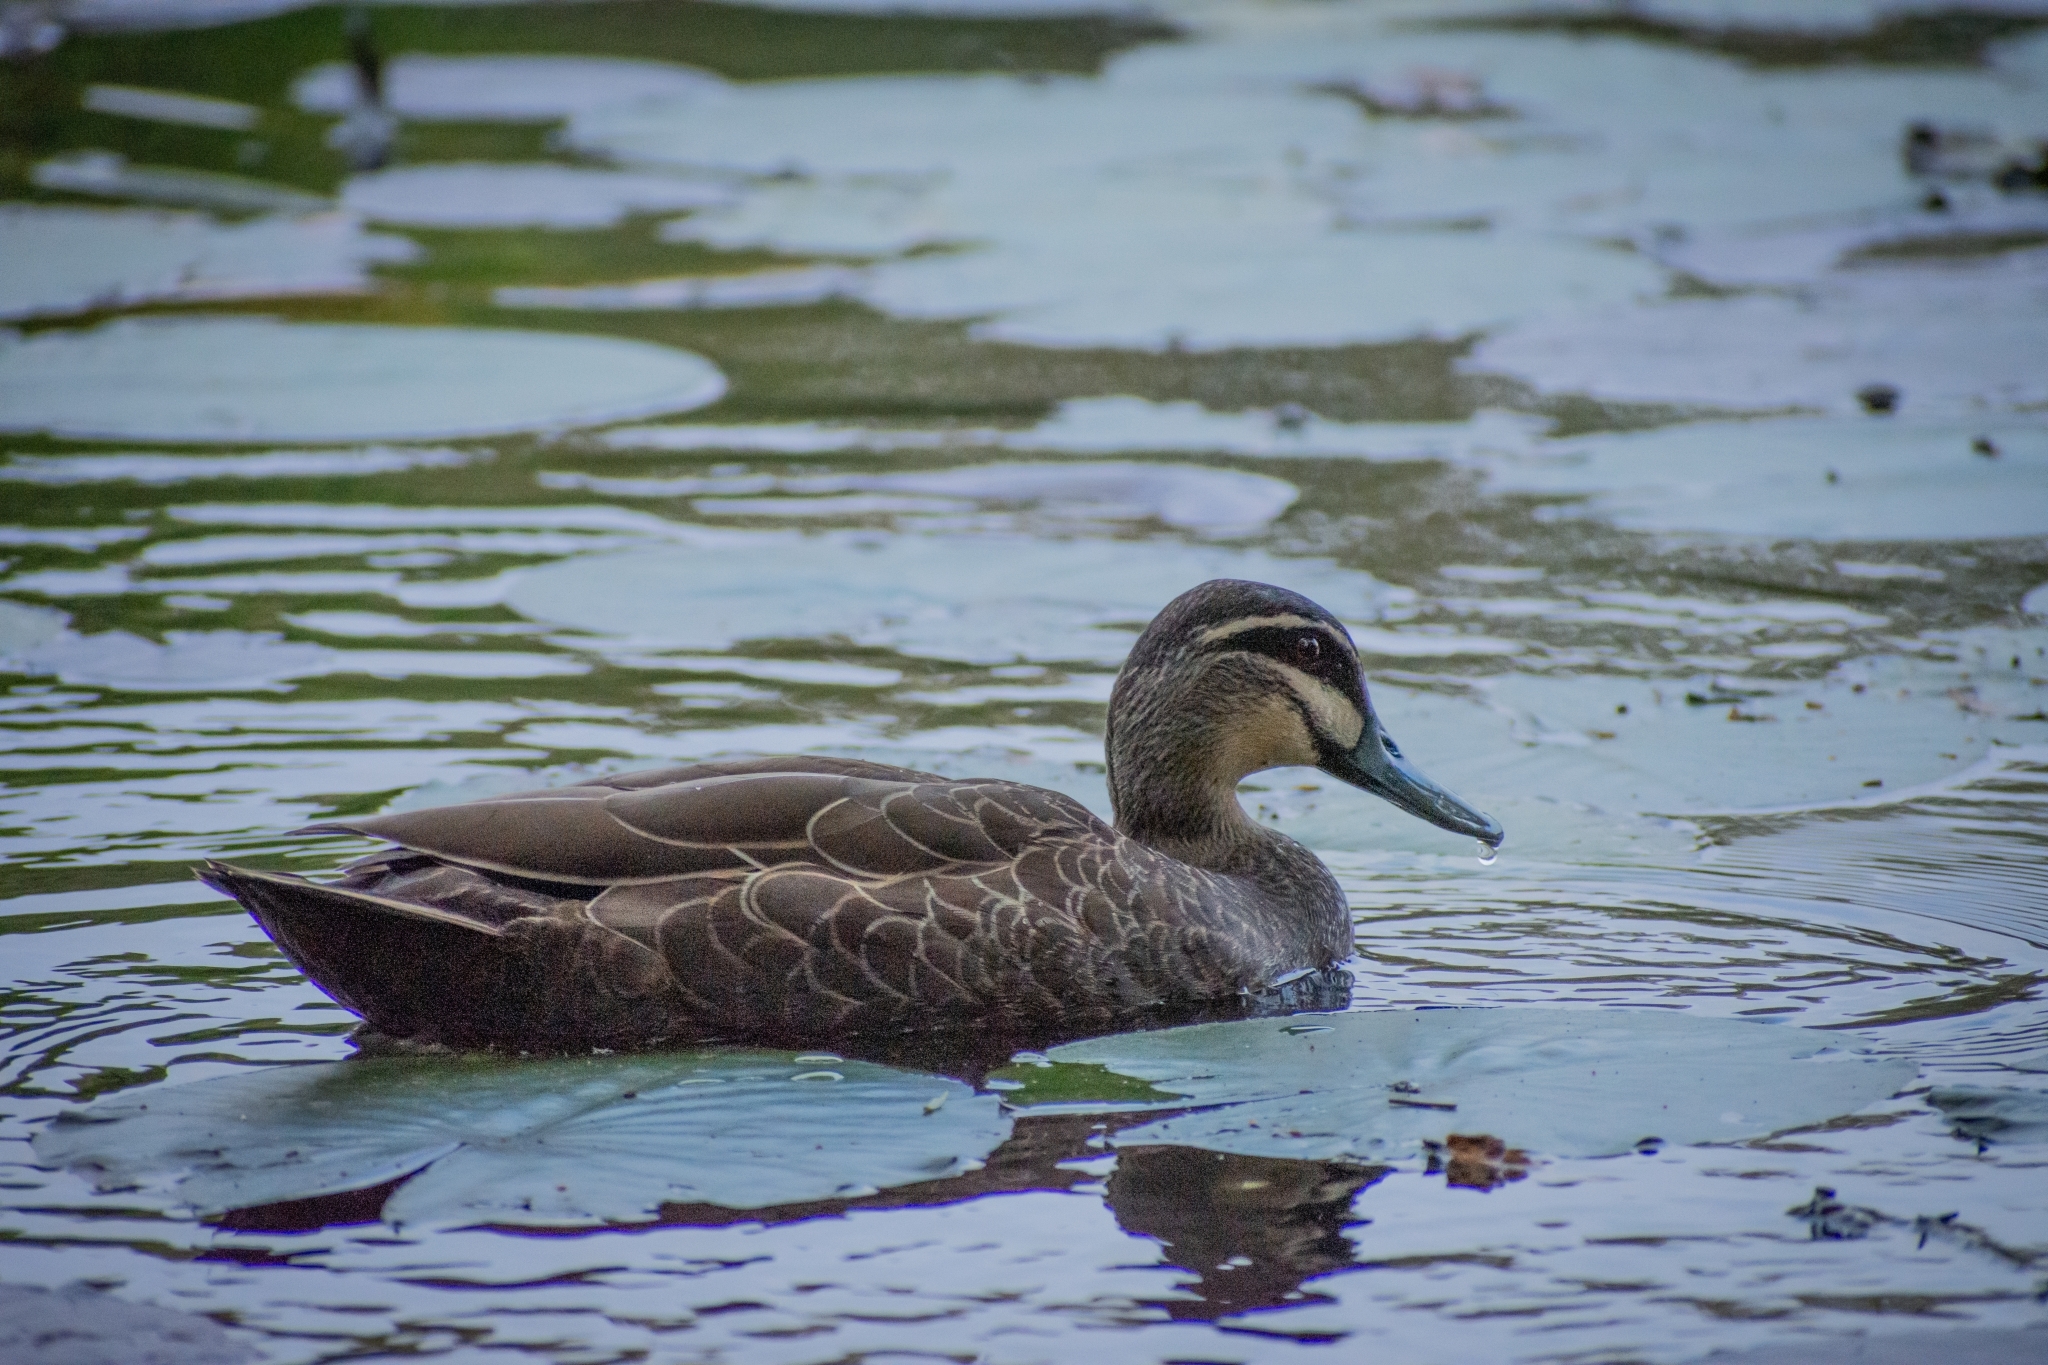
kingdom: Animalia
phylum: Chordata
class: Aves
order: Anseriformes
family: Anatidae
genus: Anas
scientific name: Anas superciliosa
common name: Pacific black duck
